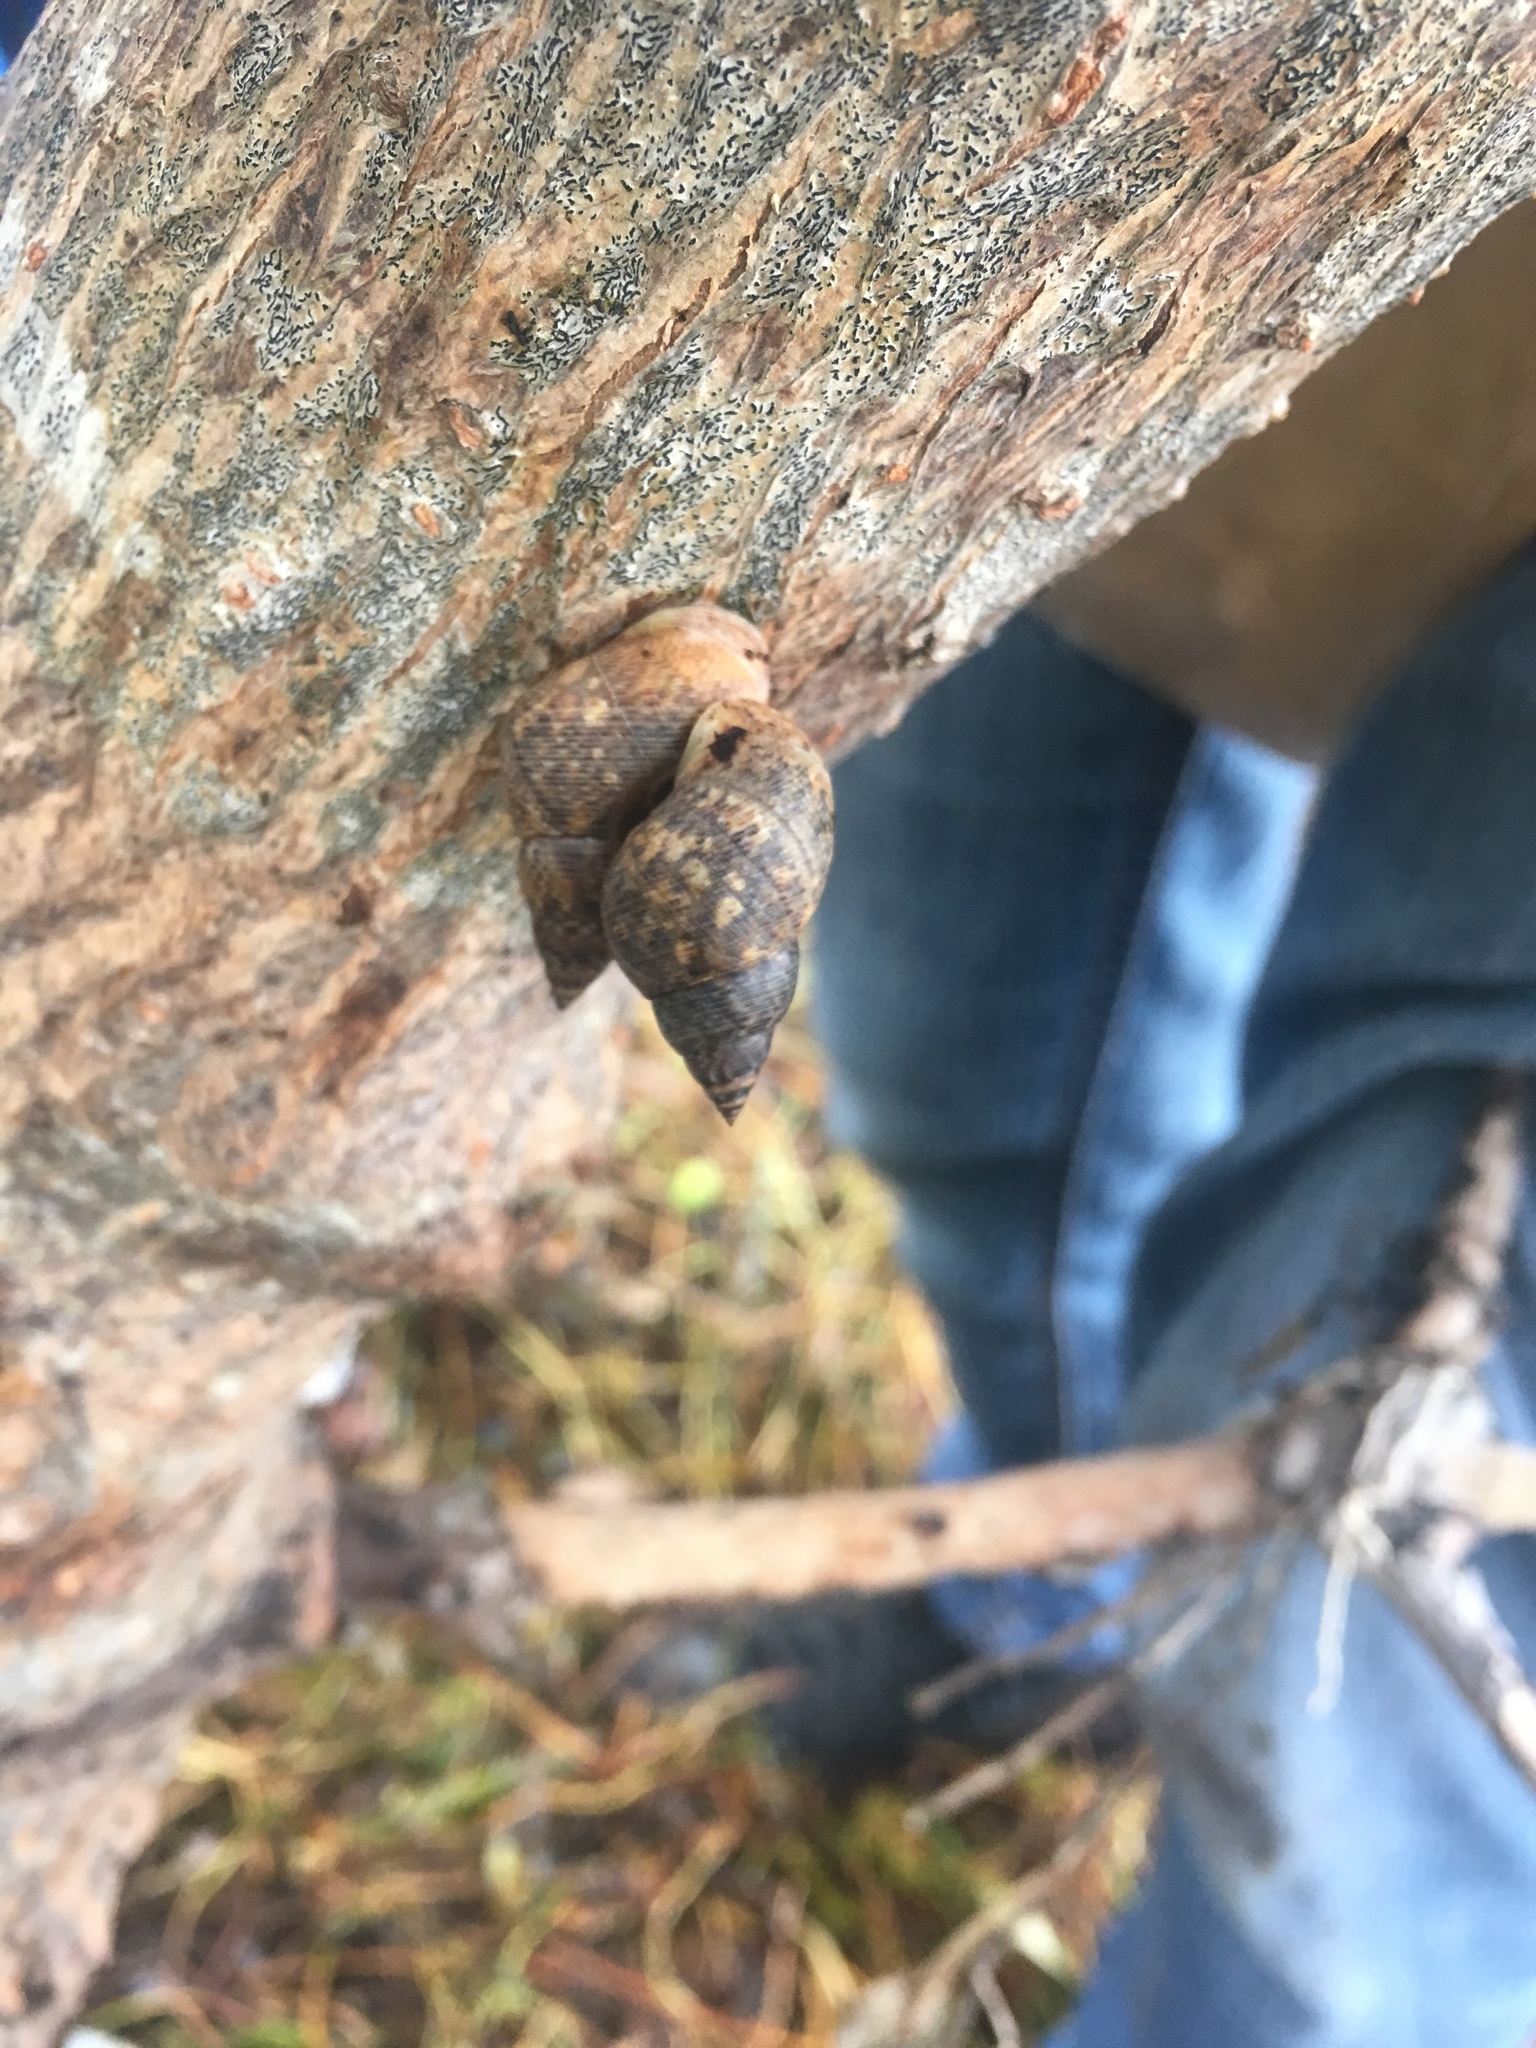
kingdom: Animalia
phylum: Mollusca
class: Gastropoda
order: Littorinimorpha
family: Littorinidae
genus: Littoraria
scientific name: Littoraria angulifera
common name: Mangrove periwinkle
